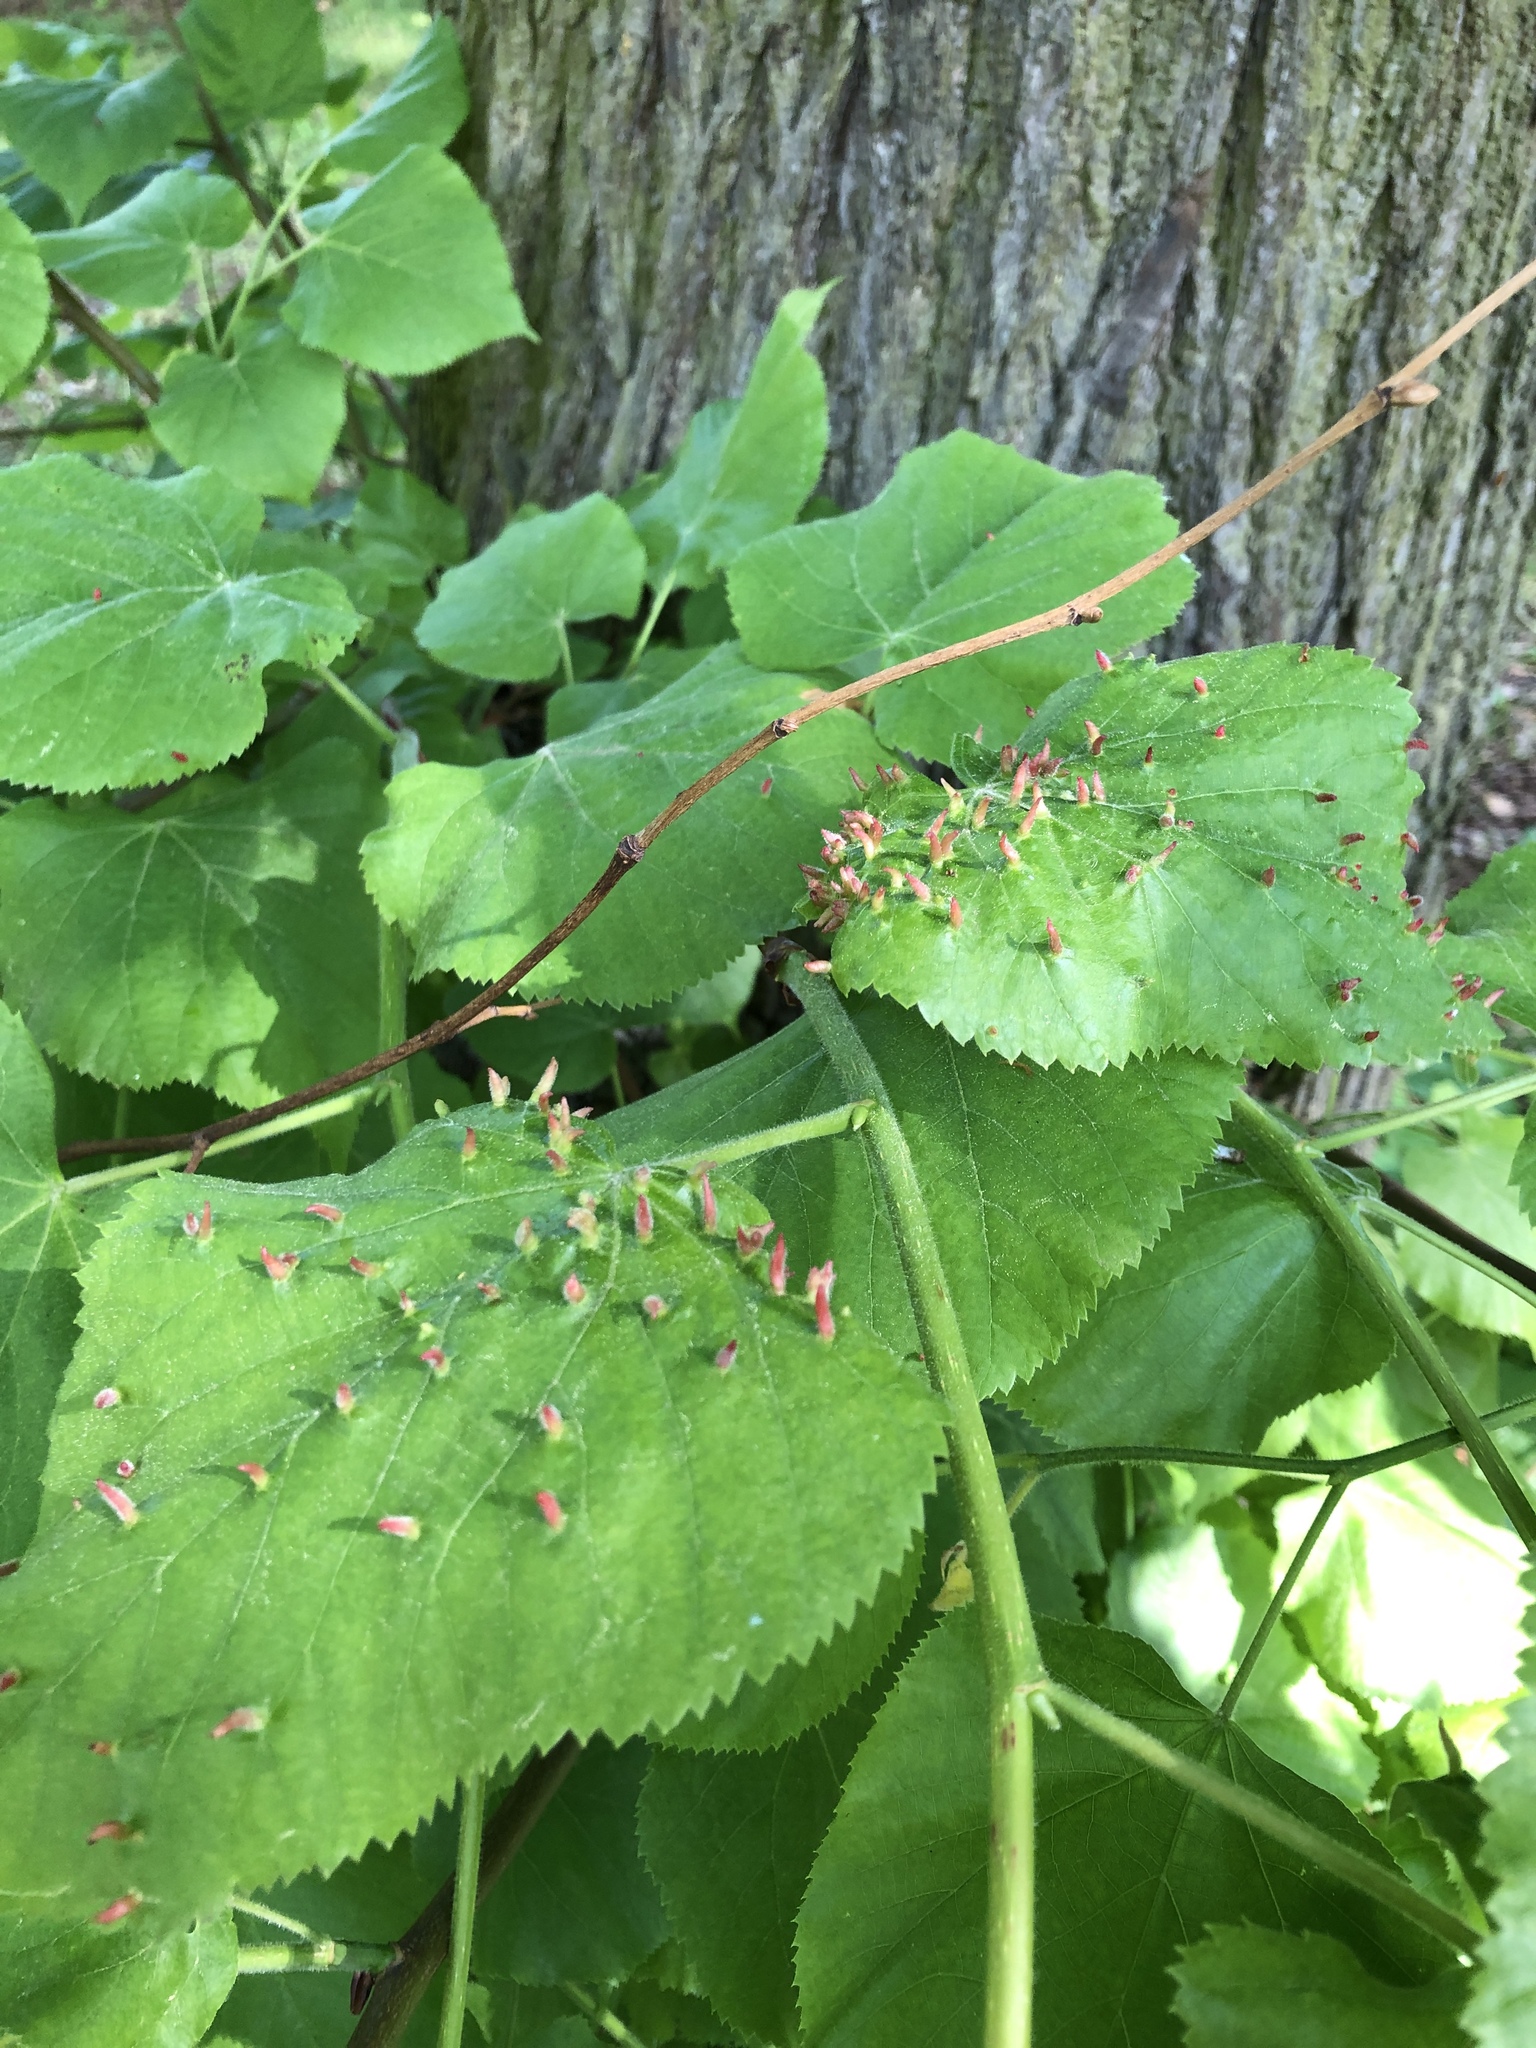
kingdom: Animalia
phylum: Arthropoda
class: Arachnida
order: Trombidiformes
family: Eriophyidae
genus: Eriophyes
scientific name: Eriophyes tiliae
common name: Red nail gall mite
